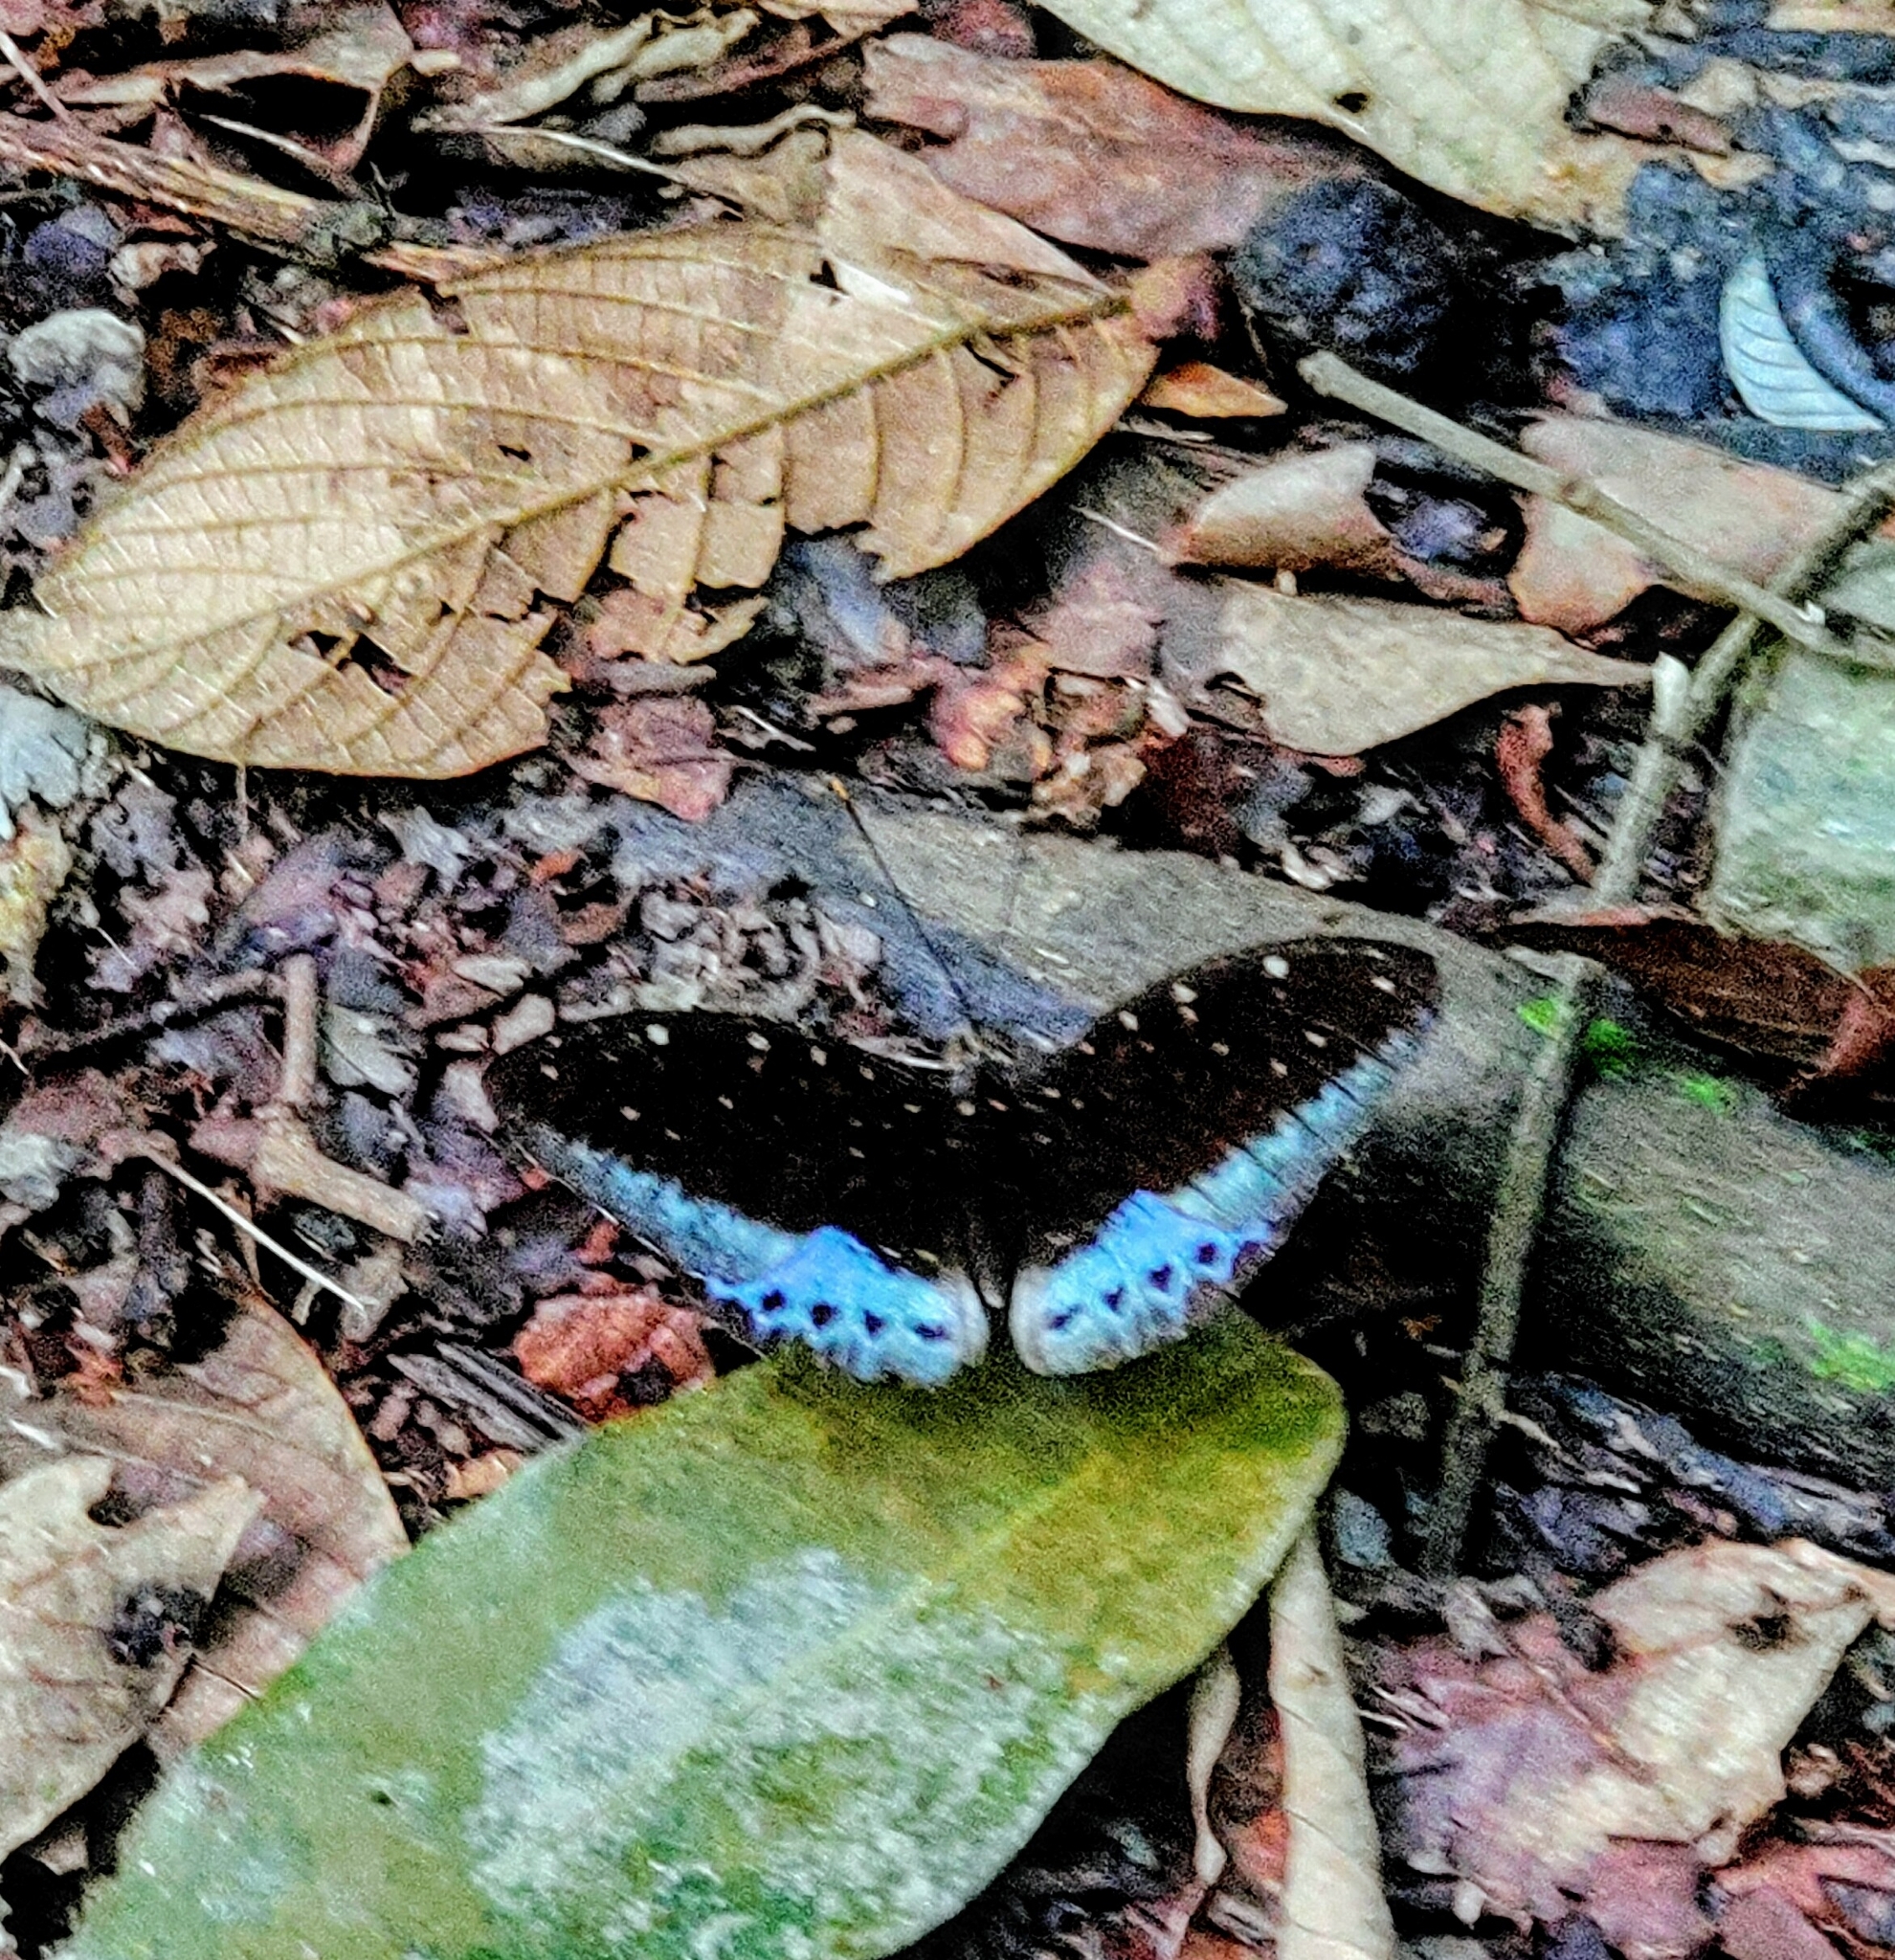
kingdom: Animalia
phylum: Arthropoda
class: Insecta
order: Lepidoptera
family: Nymphalidae
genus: Lexias
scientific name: Lexias pardalis
